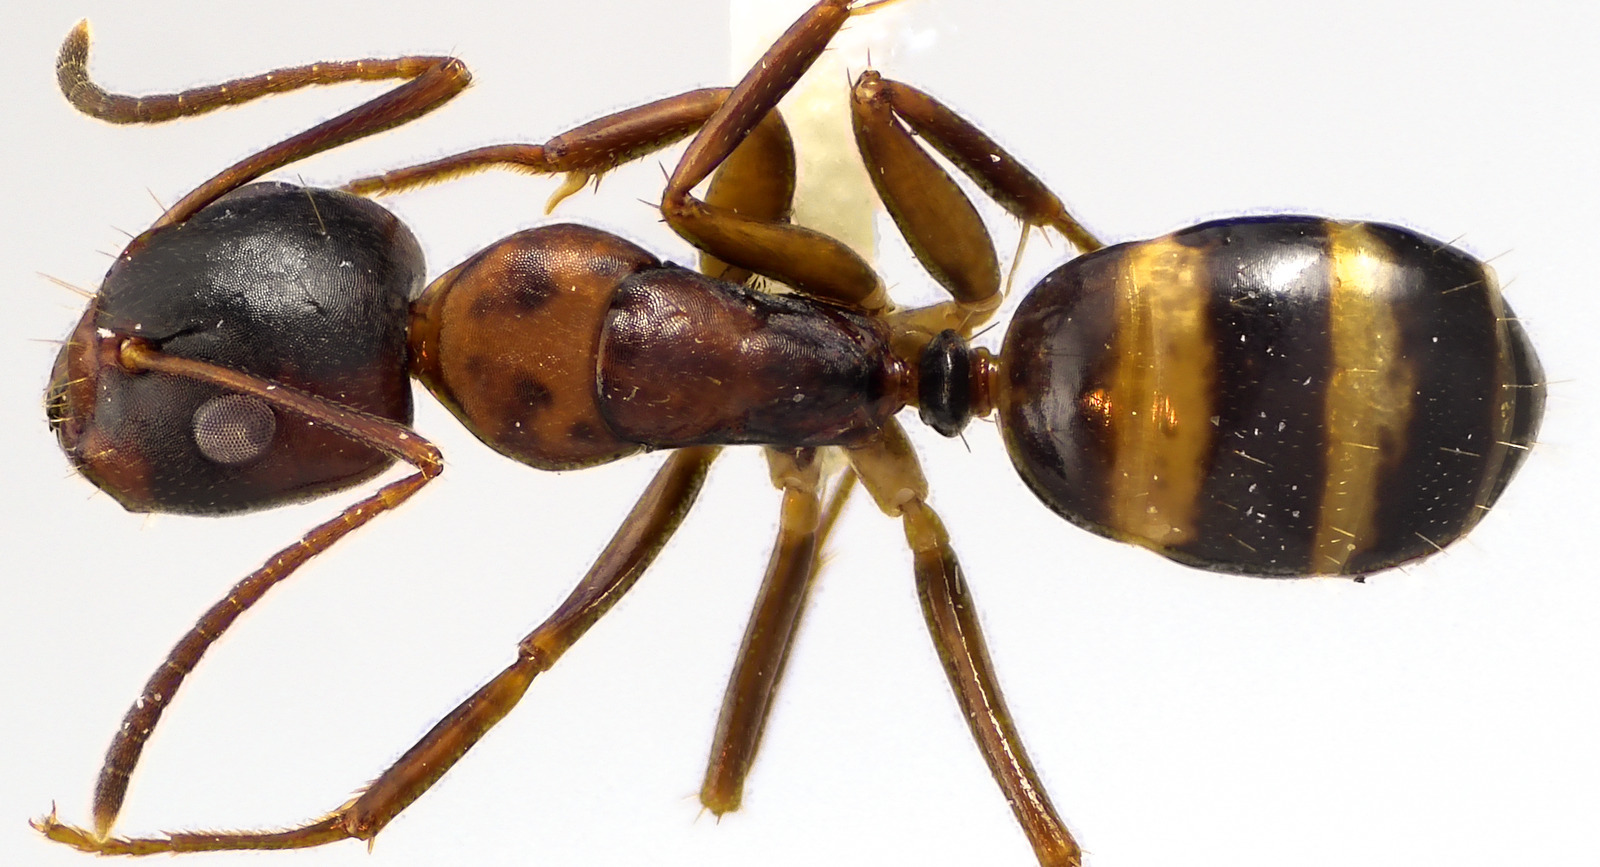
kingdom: Animalia
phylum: Arthropoda
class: Insecta
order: Hymenoptera
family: Formicidae
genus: Camponotus
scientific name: Camponotus subbarbatus
